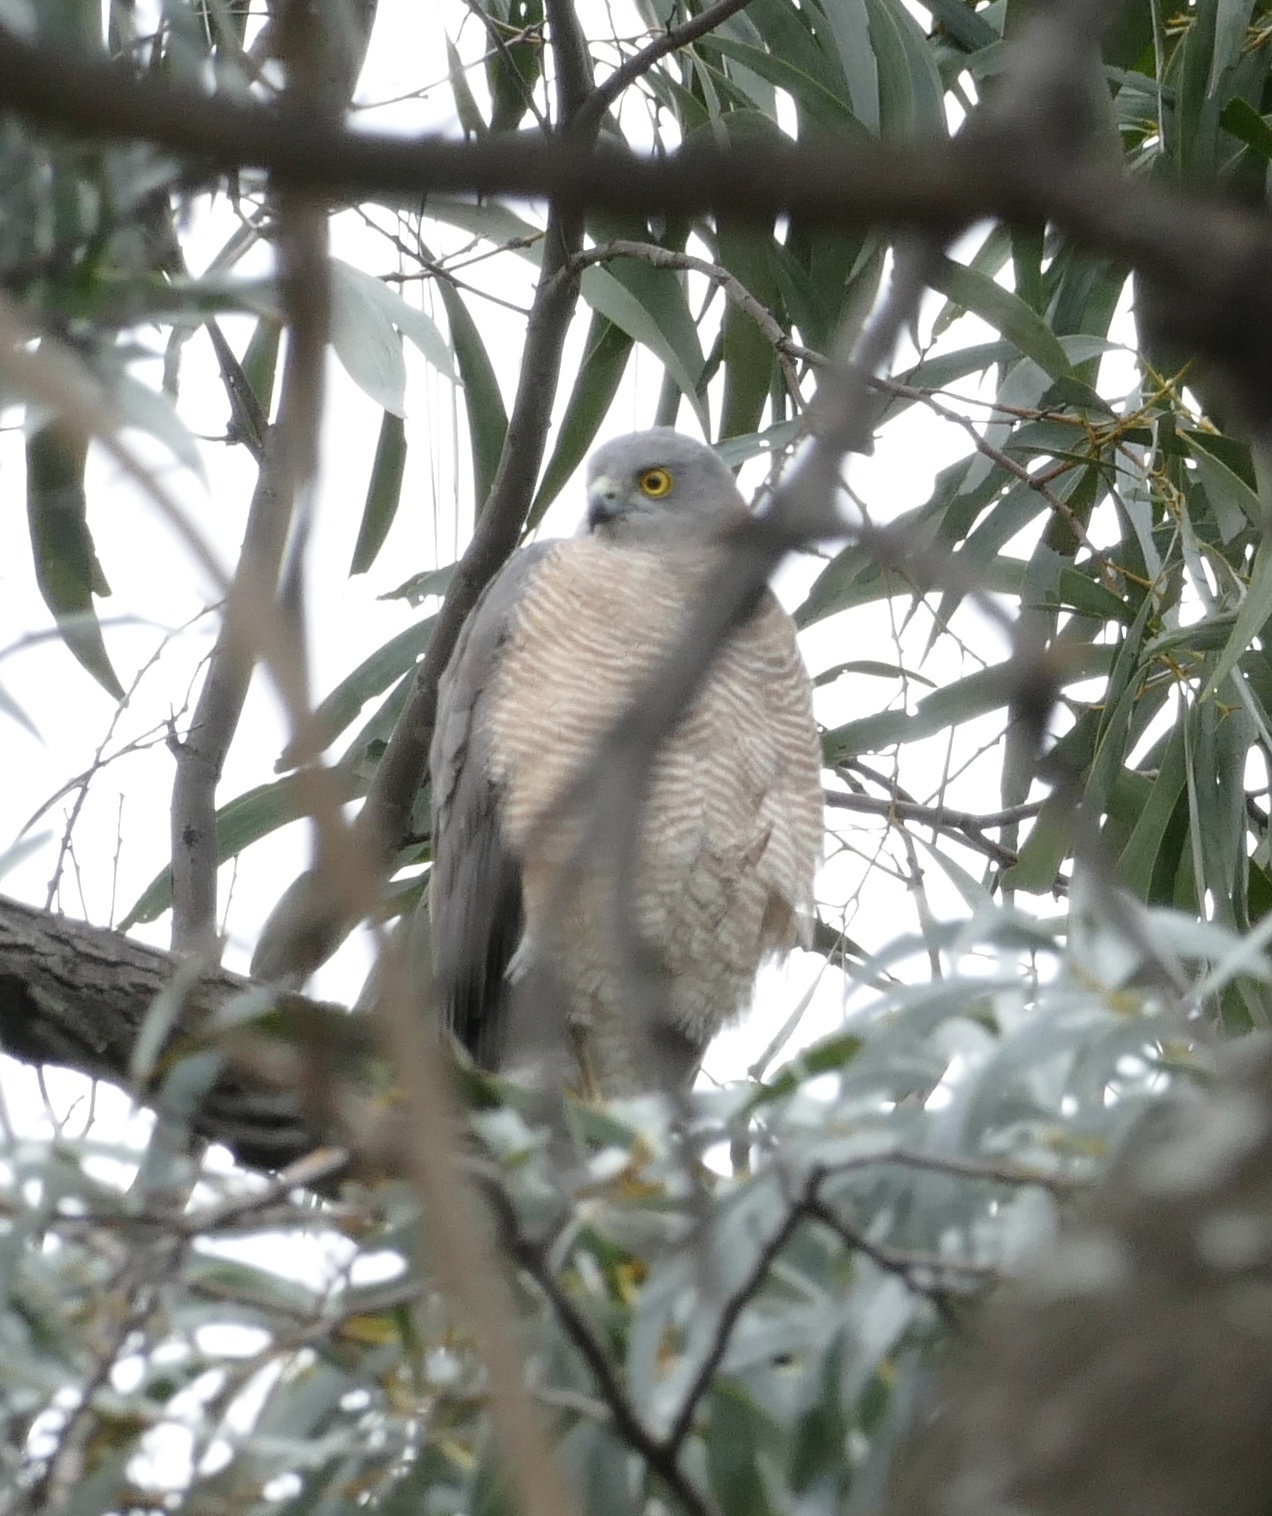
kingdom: Animalia
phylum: Chordata
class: Aves
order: Accipitriformes
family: Accipitridae
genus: Accipiter
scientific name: Accipiter cirrocephalus
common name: Collared sparrowhawk
